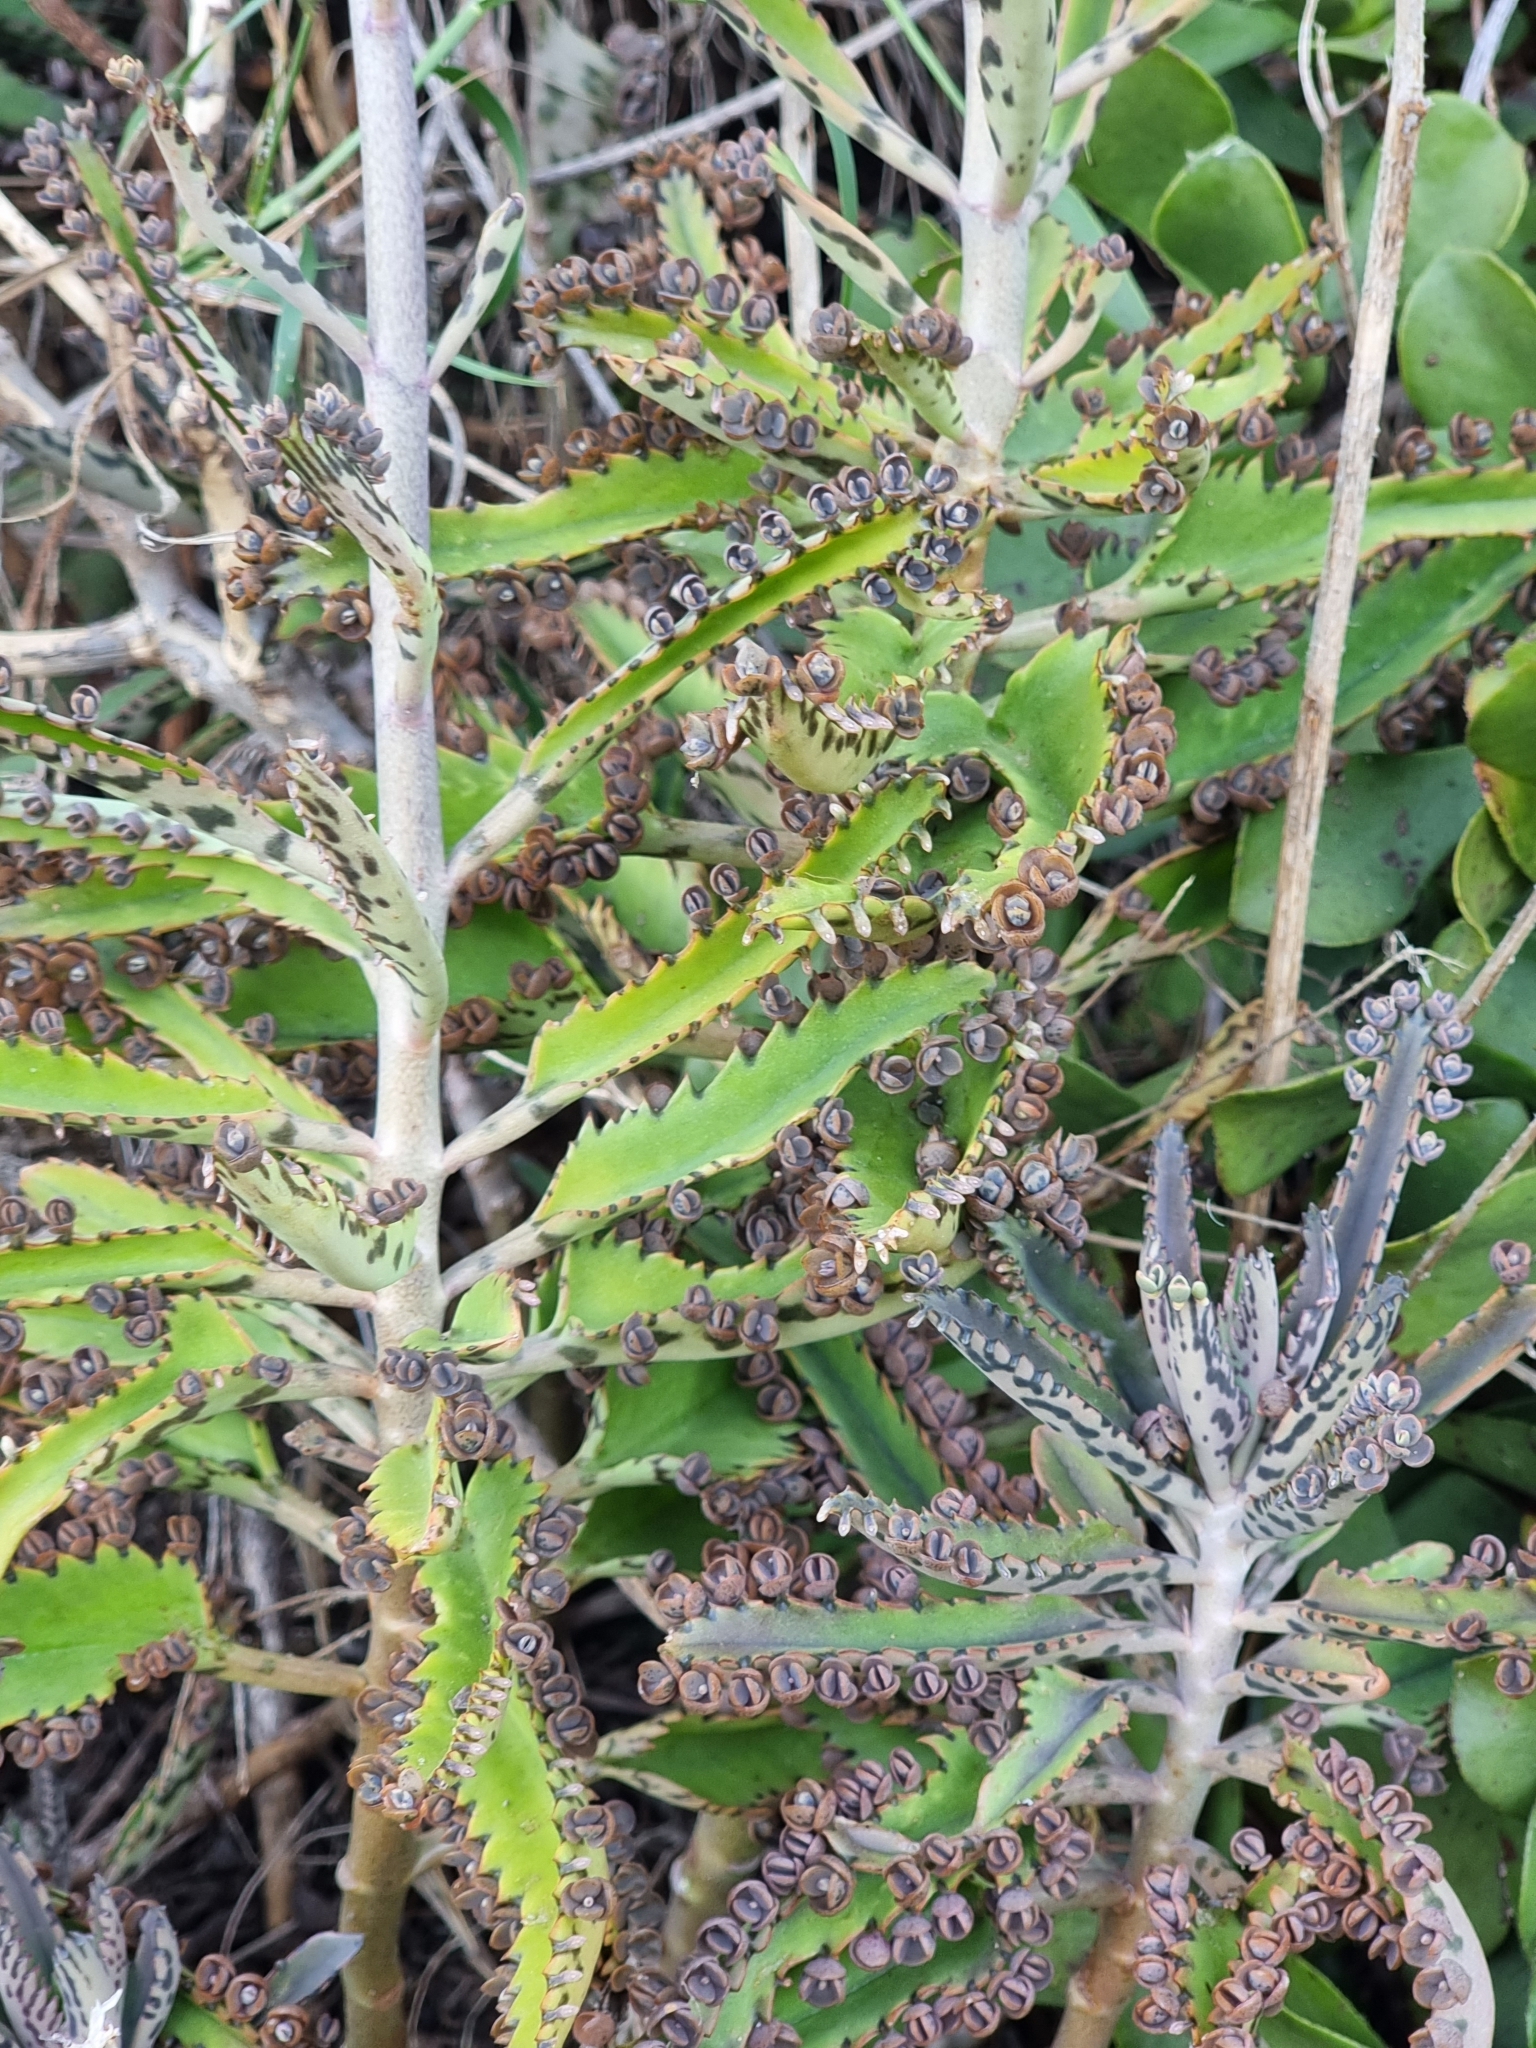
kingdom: Plantae
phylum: Tracheophyta
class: Magnoliopsida
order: Saxifragales
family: Crassulaceae
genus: Kalanchoe
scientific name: Kalanchoe houghtonii
